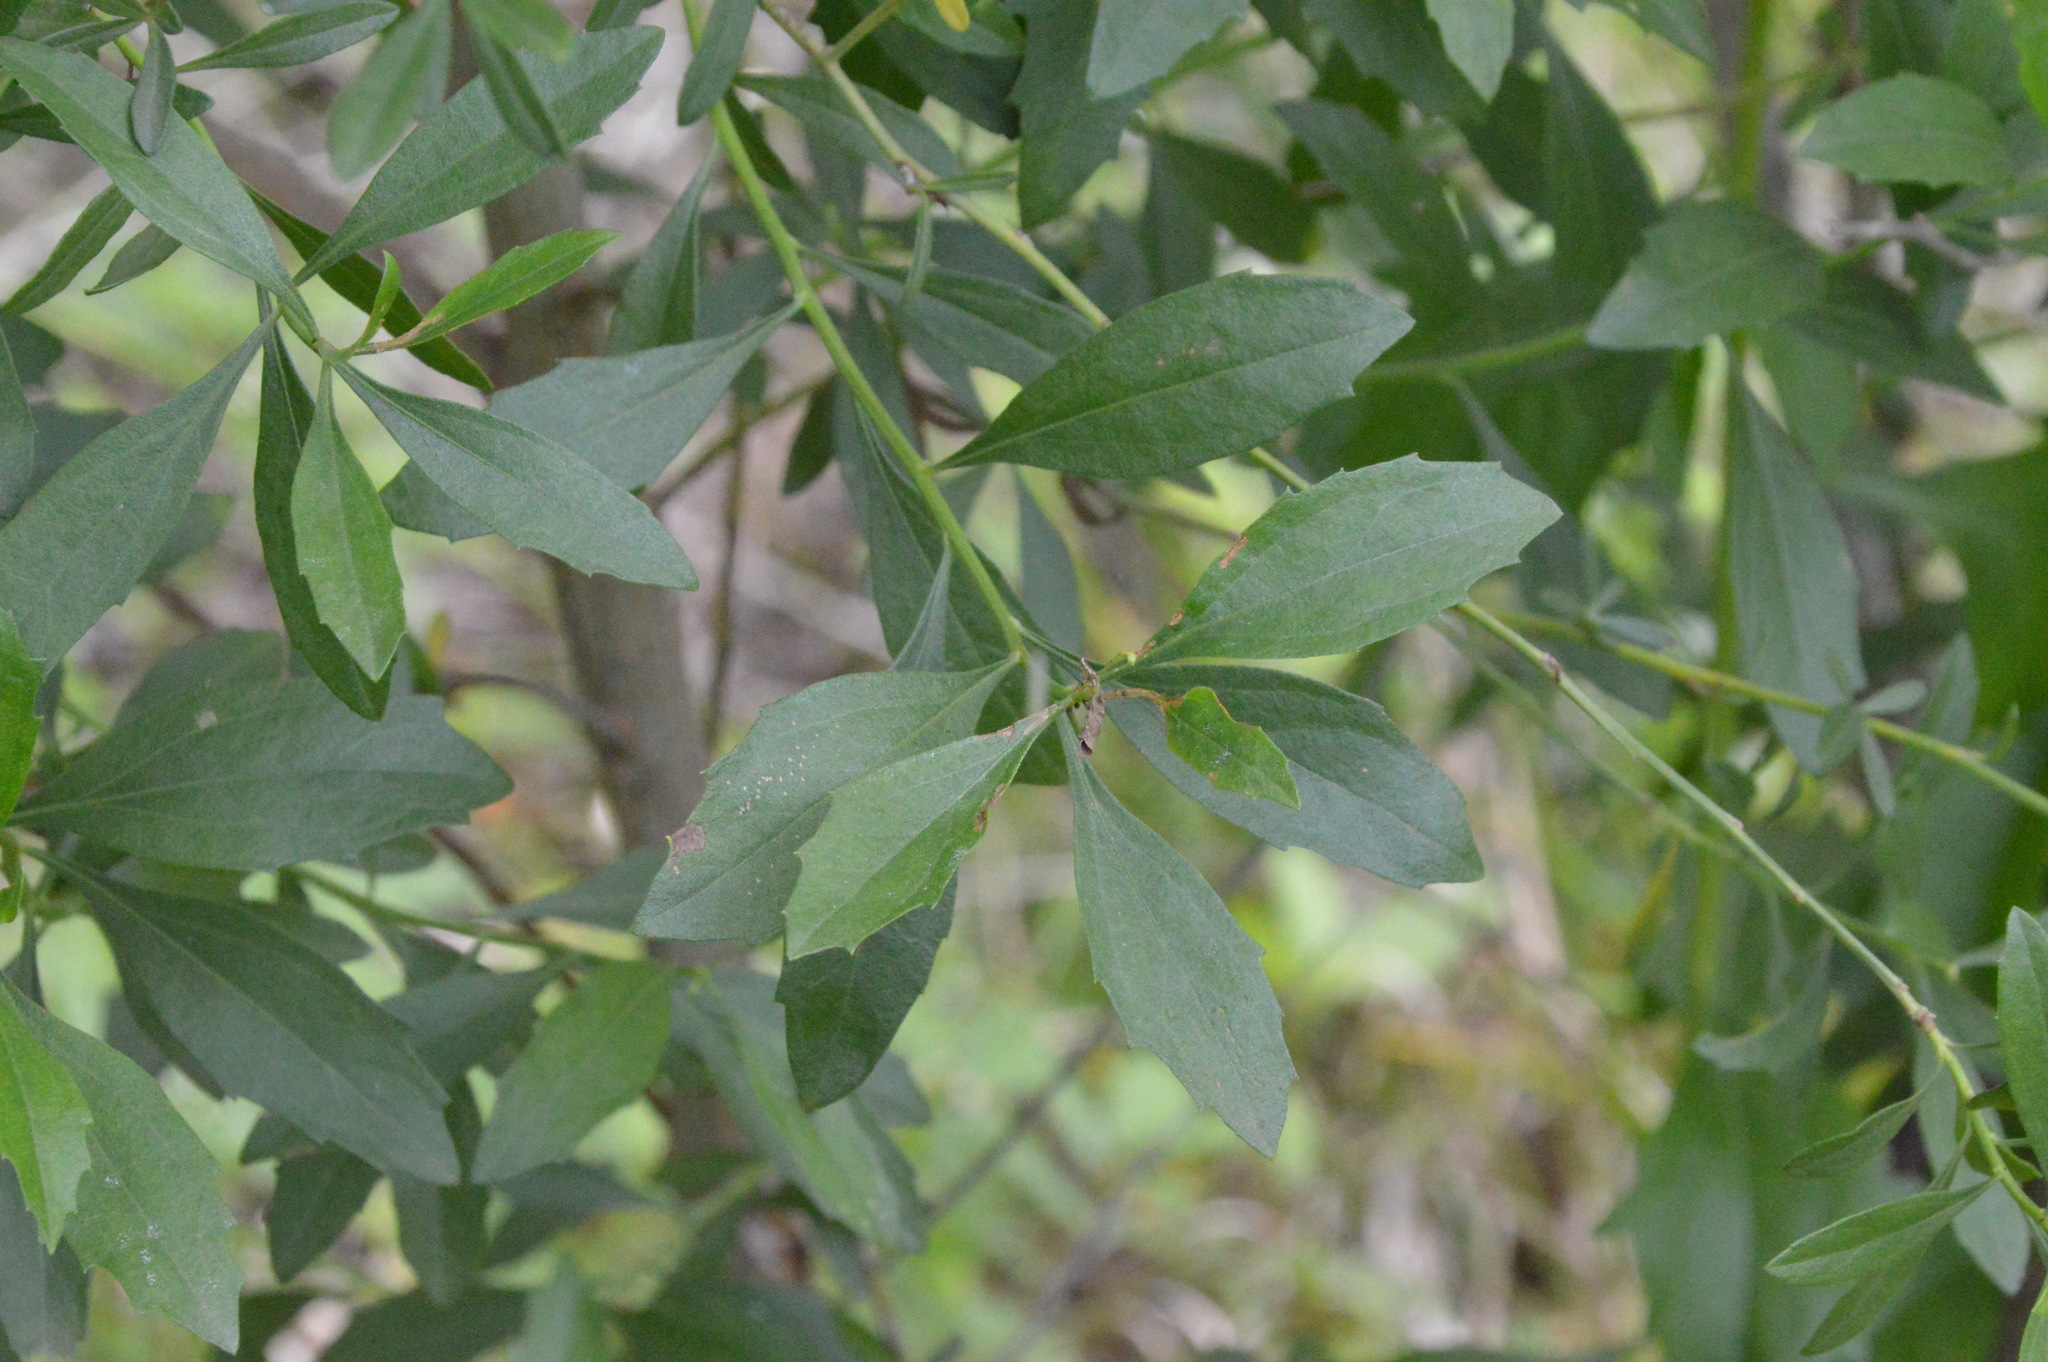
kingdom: Plantae
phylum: Tracheophyta
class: Magnoliopsida
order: Asterales
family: Asteraceae
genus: Baccharis
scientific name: Baccharis halimifolia
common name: Eastern baccharis
